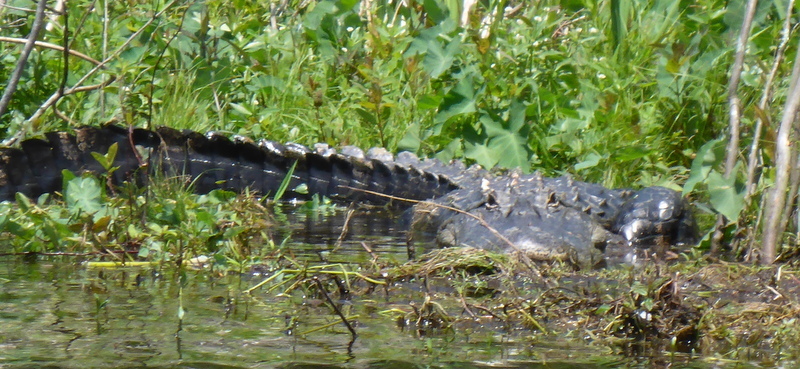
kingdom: Animalia
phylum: Chordata
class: Crocodylia
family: Alligatoridae
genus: Alligator
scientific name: Alligator mississippiensis
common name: American alligator
